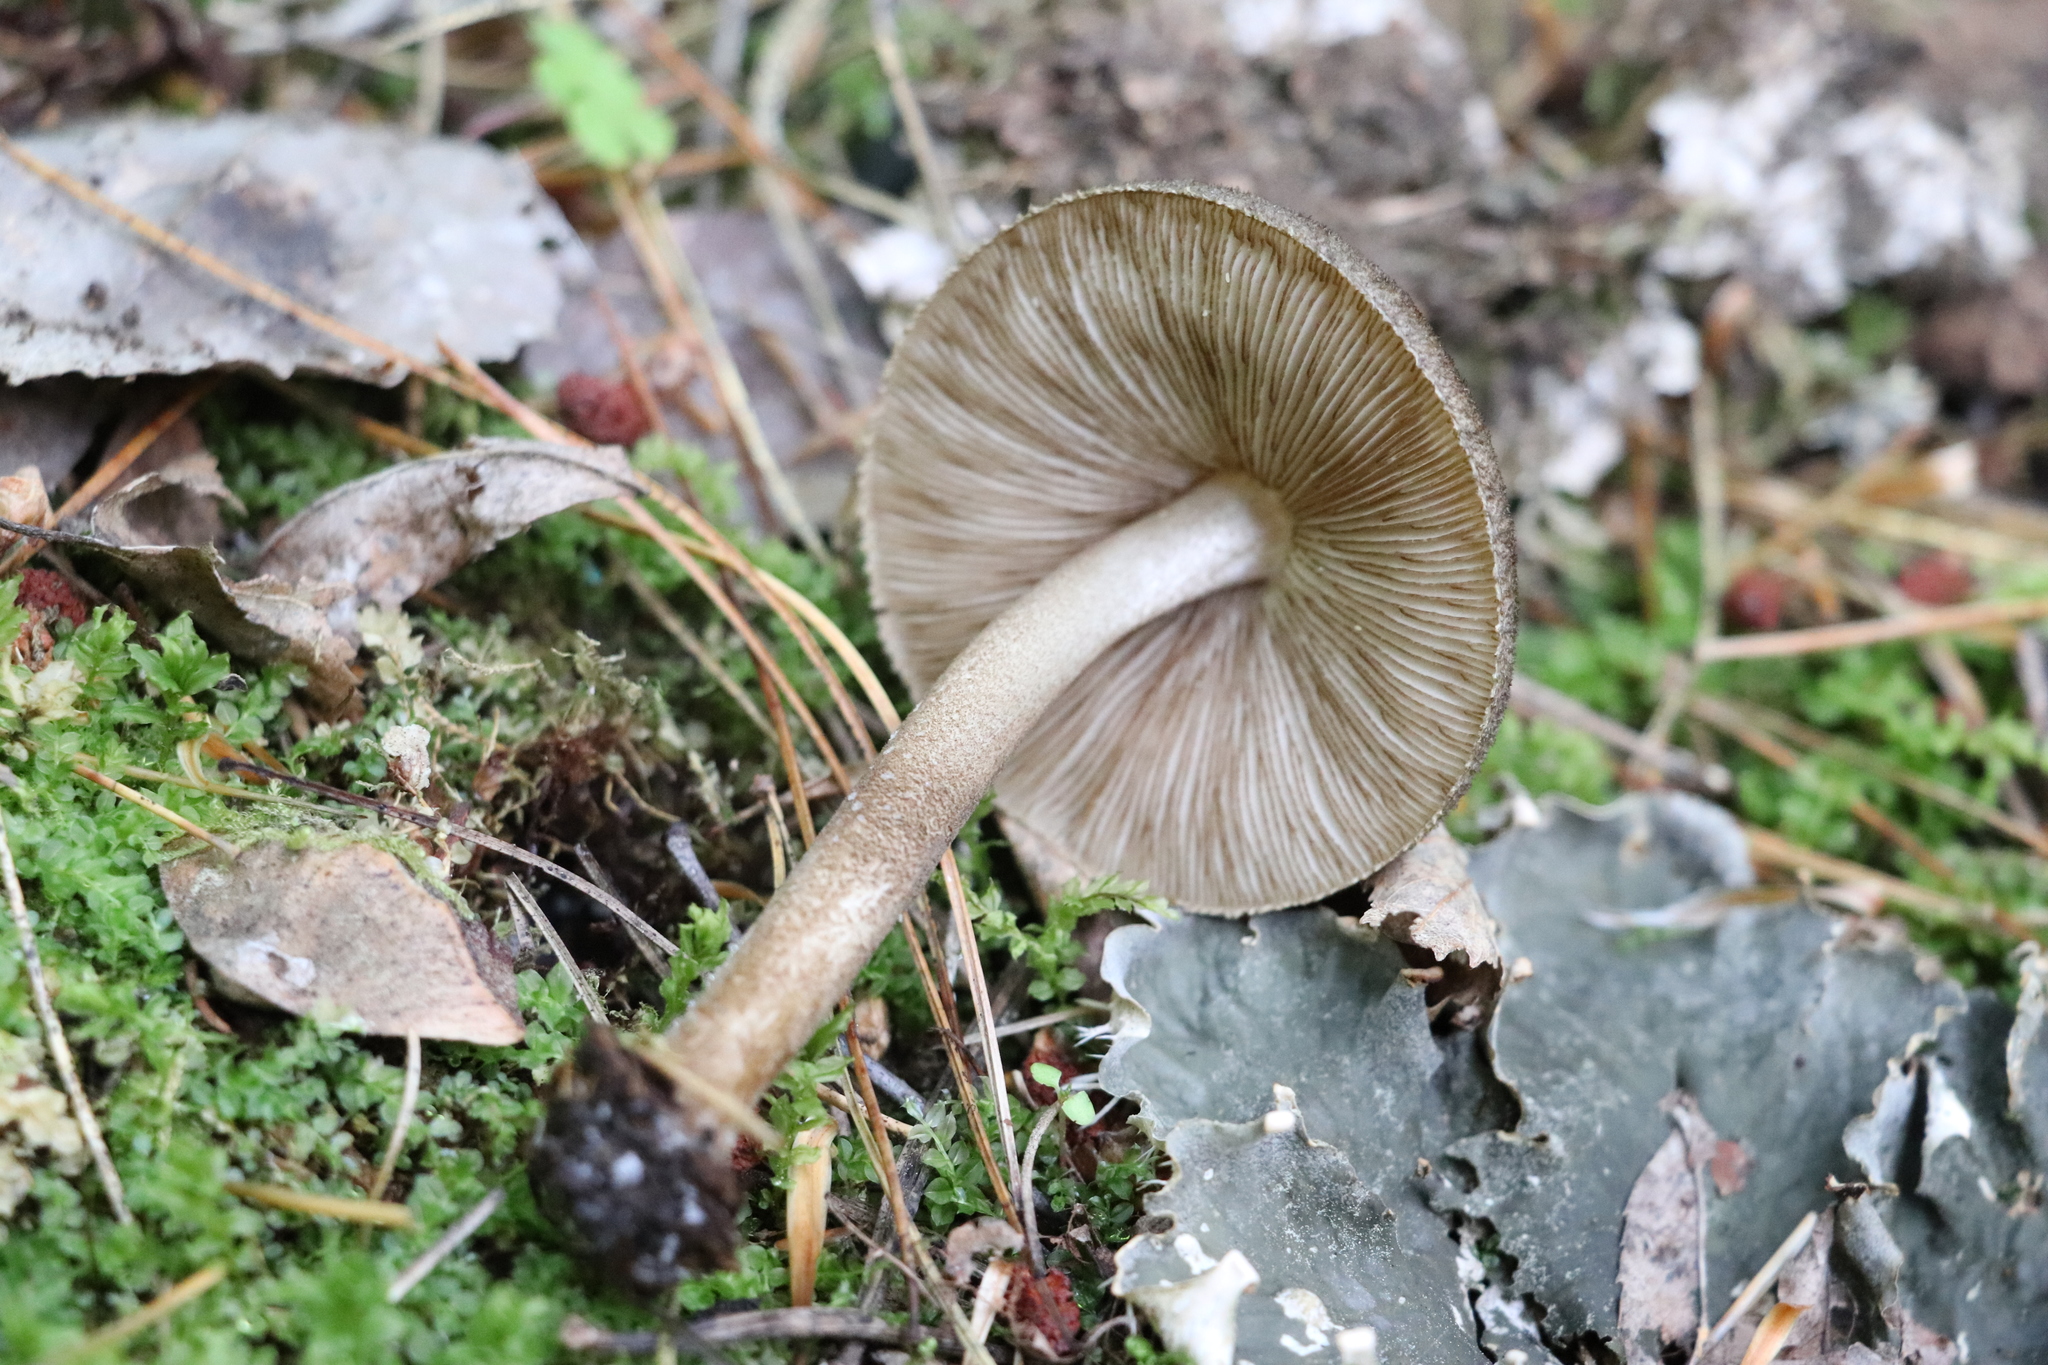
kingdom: Fungi
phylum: Basidiomycota
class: Agaricomycetes
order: Agaricales
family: Pluteaceae
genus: Pluteus
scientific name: Pluteus umbrosus
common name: Velvet shield
